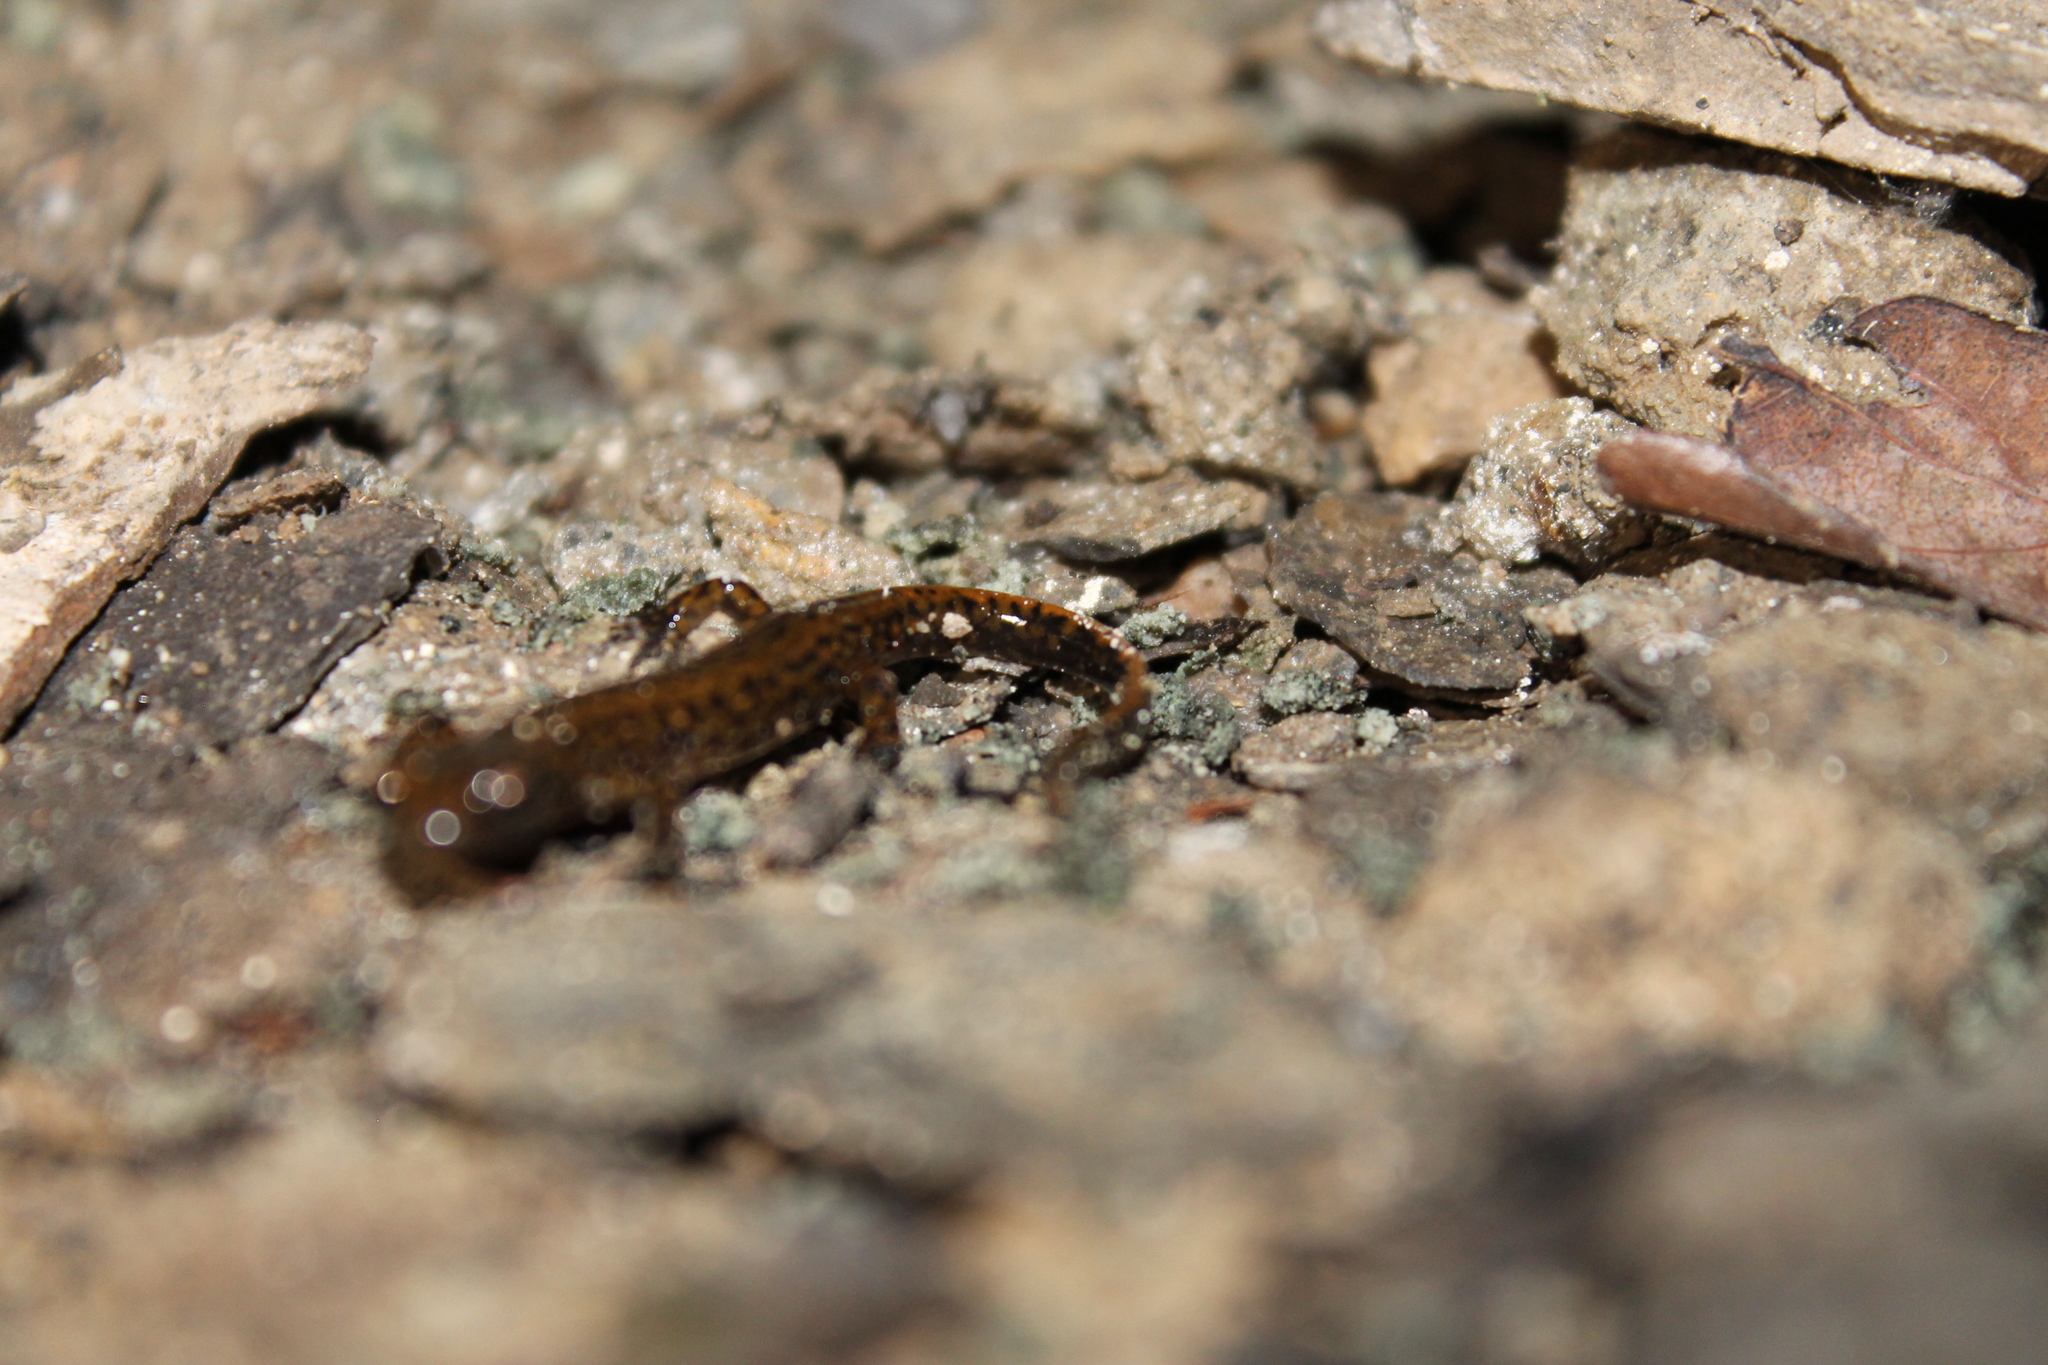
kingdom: Animalia
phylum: Chordata
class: Amphibia
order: Caudata
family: Plethodontidae
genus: Eurycea
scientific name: Eurycea lucifuga
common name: Cave salamander
